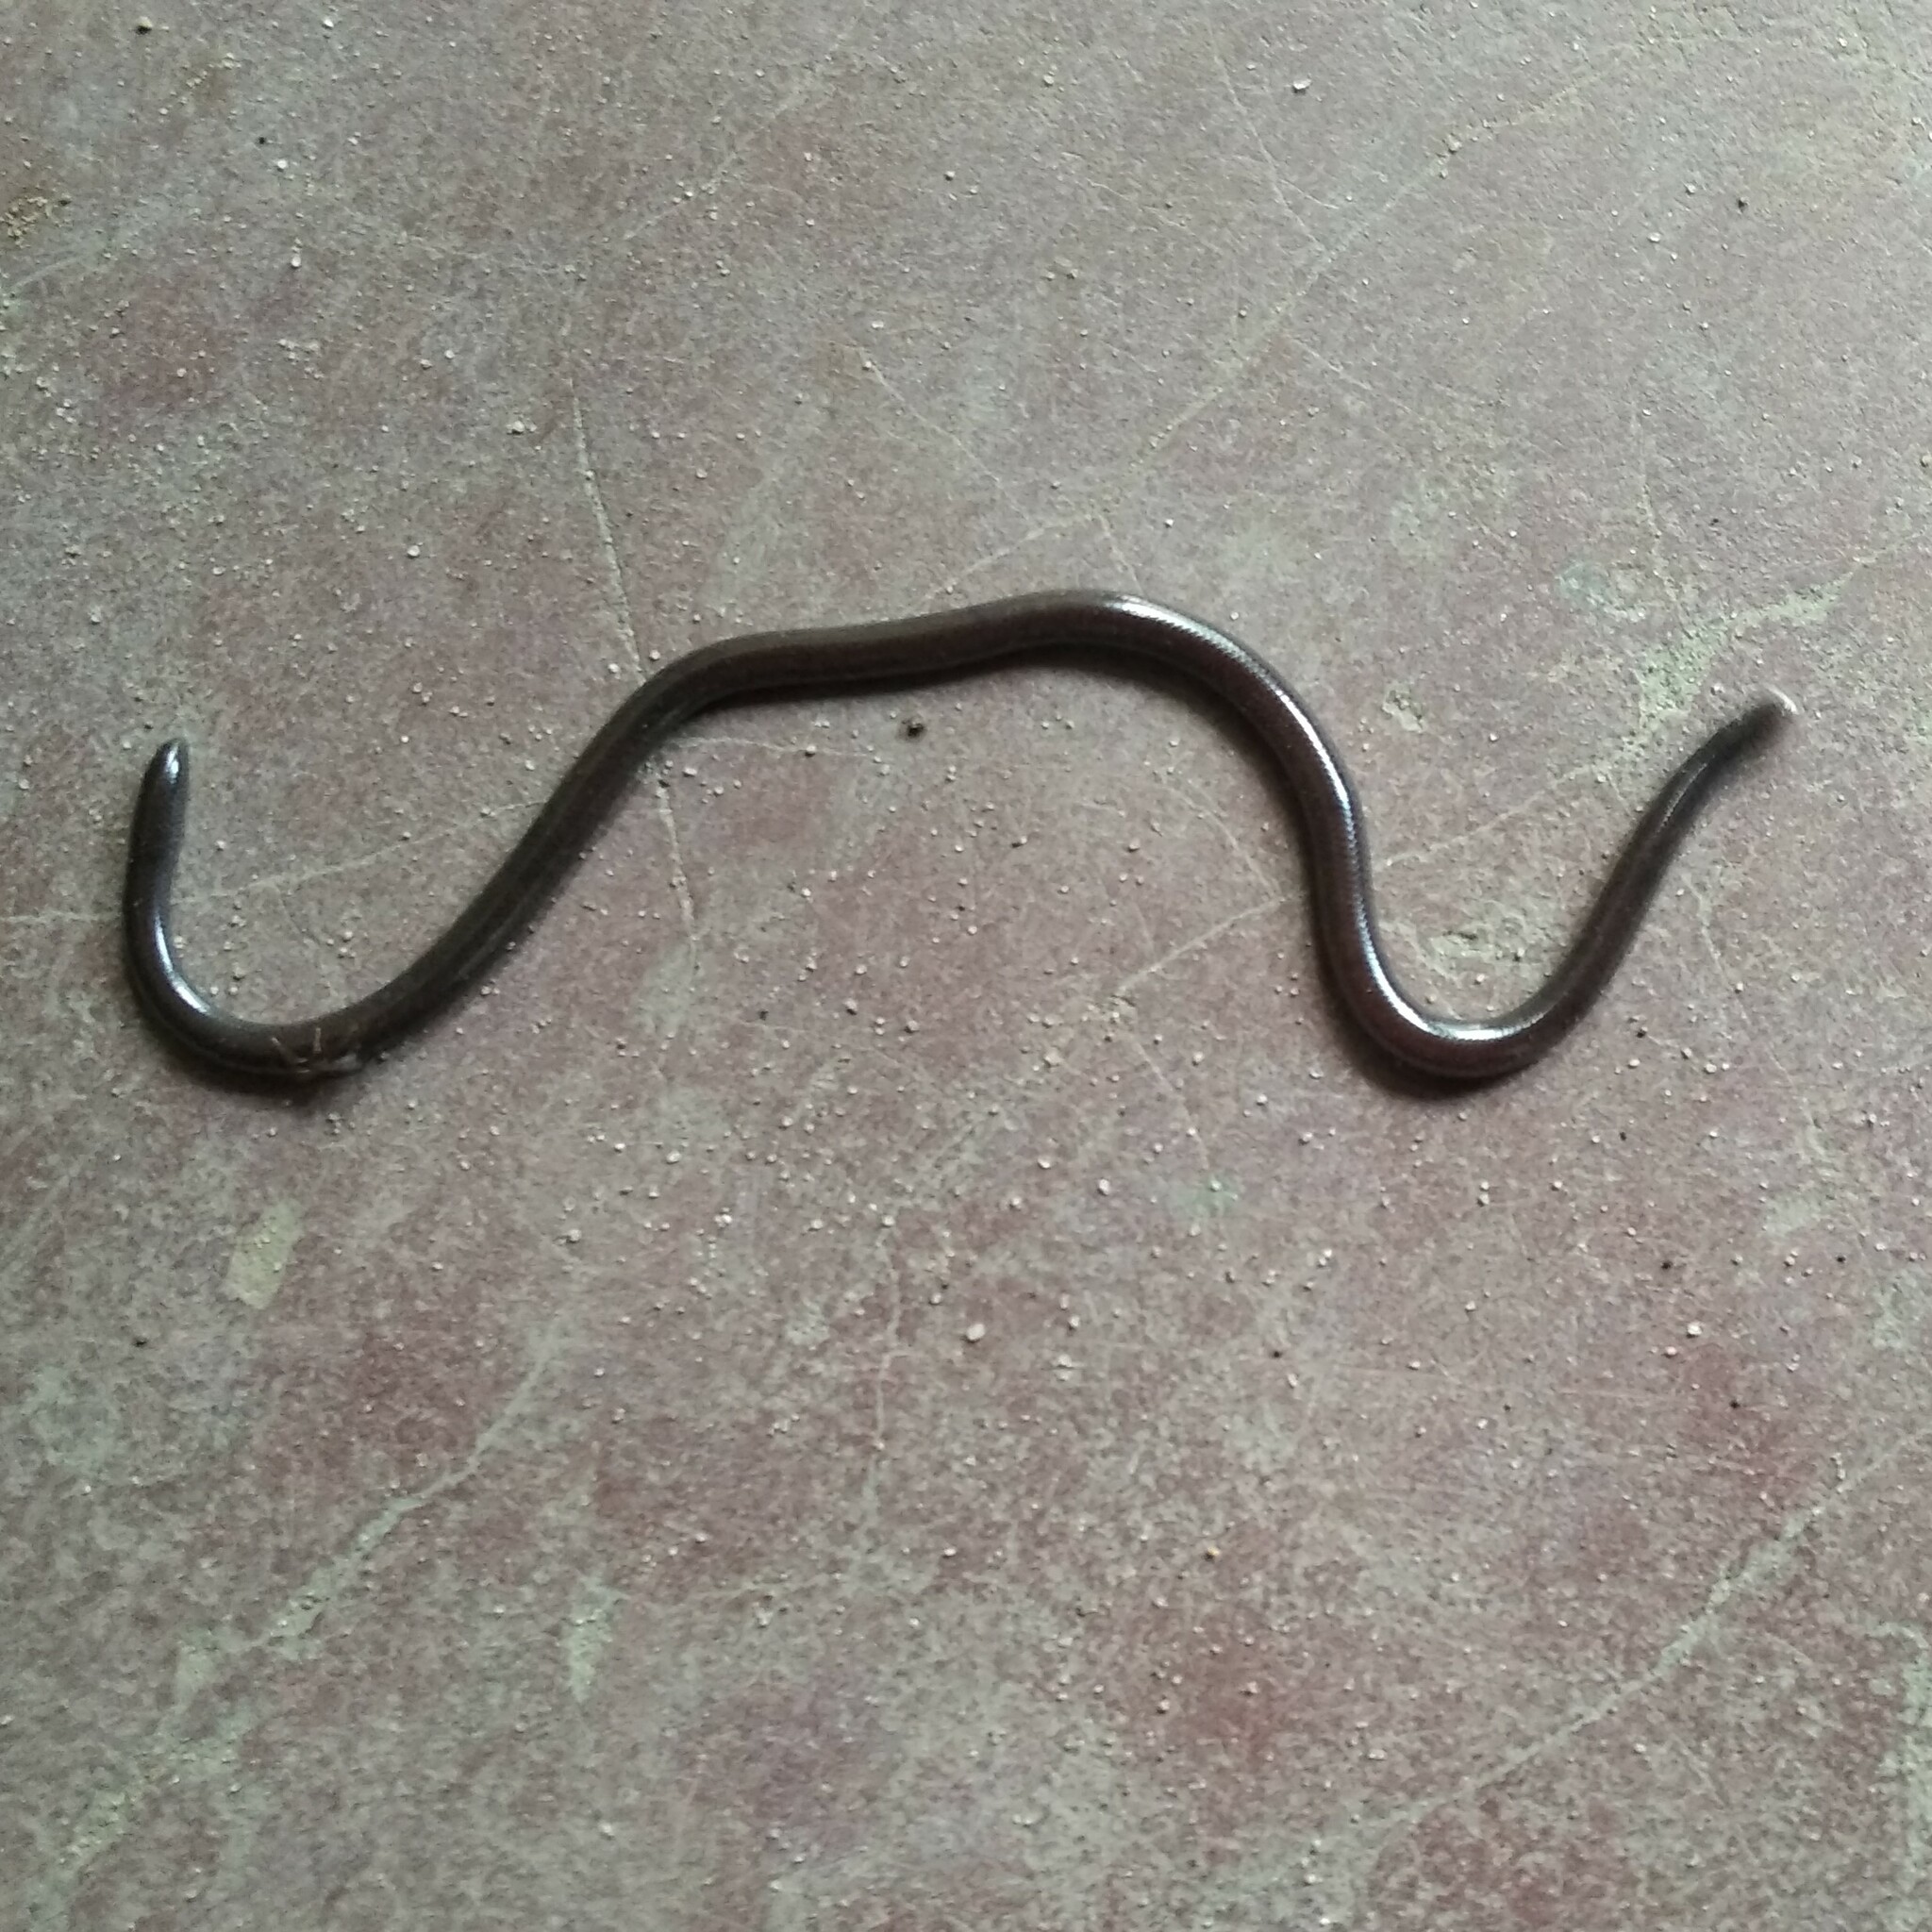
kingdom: Animalia
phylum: Chordata
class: Squamata
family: Typhlopidae
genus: Indotyphlops
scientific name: Indotyphlops braminus
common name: Brahminy blindsnake
